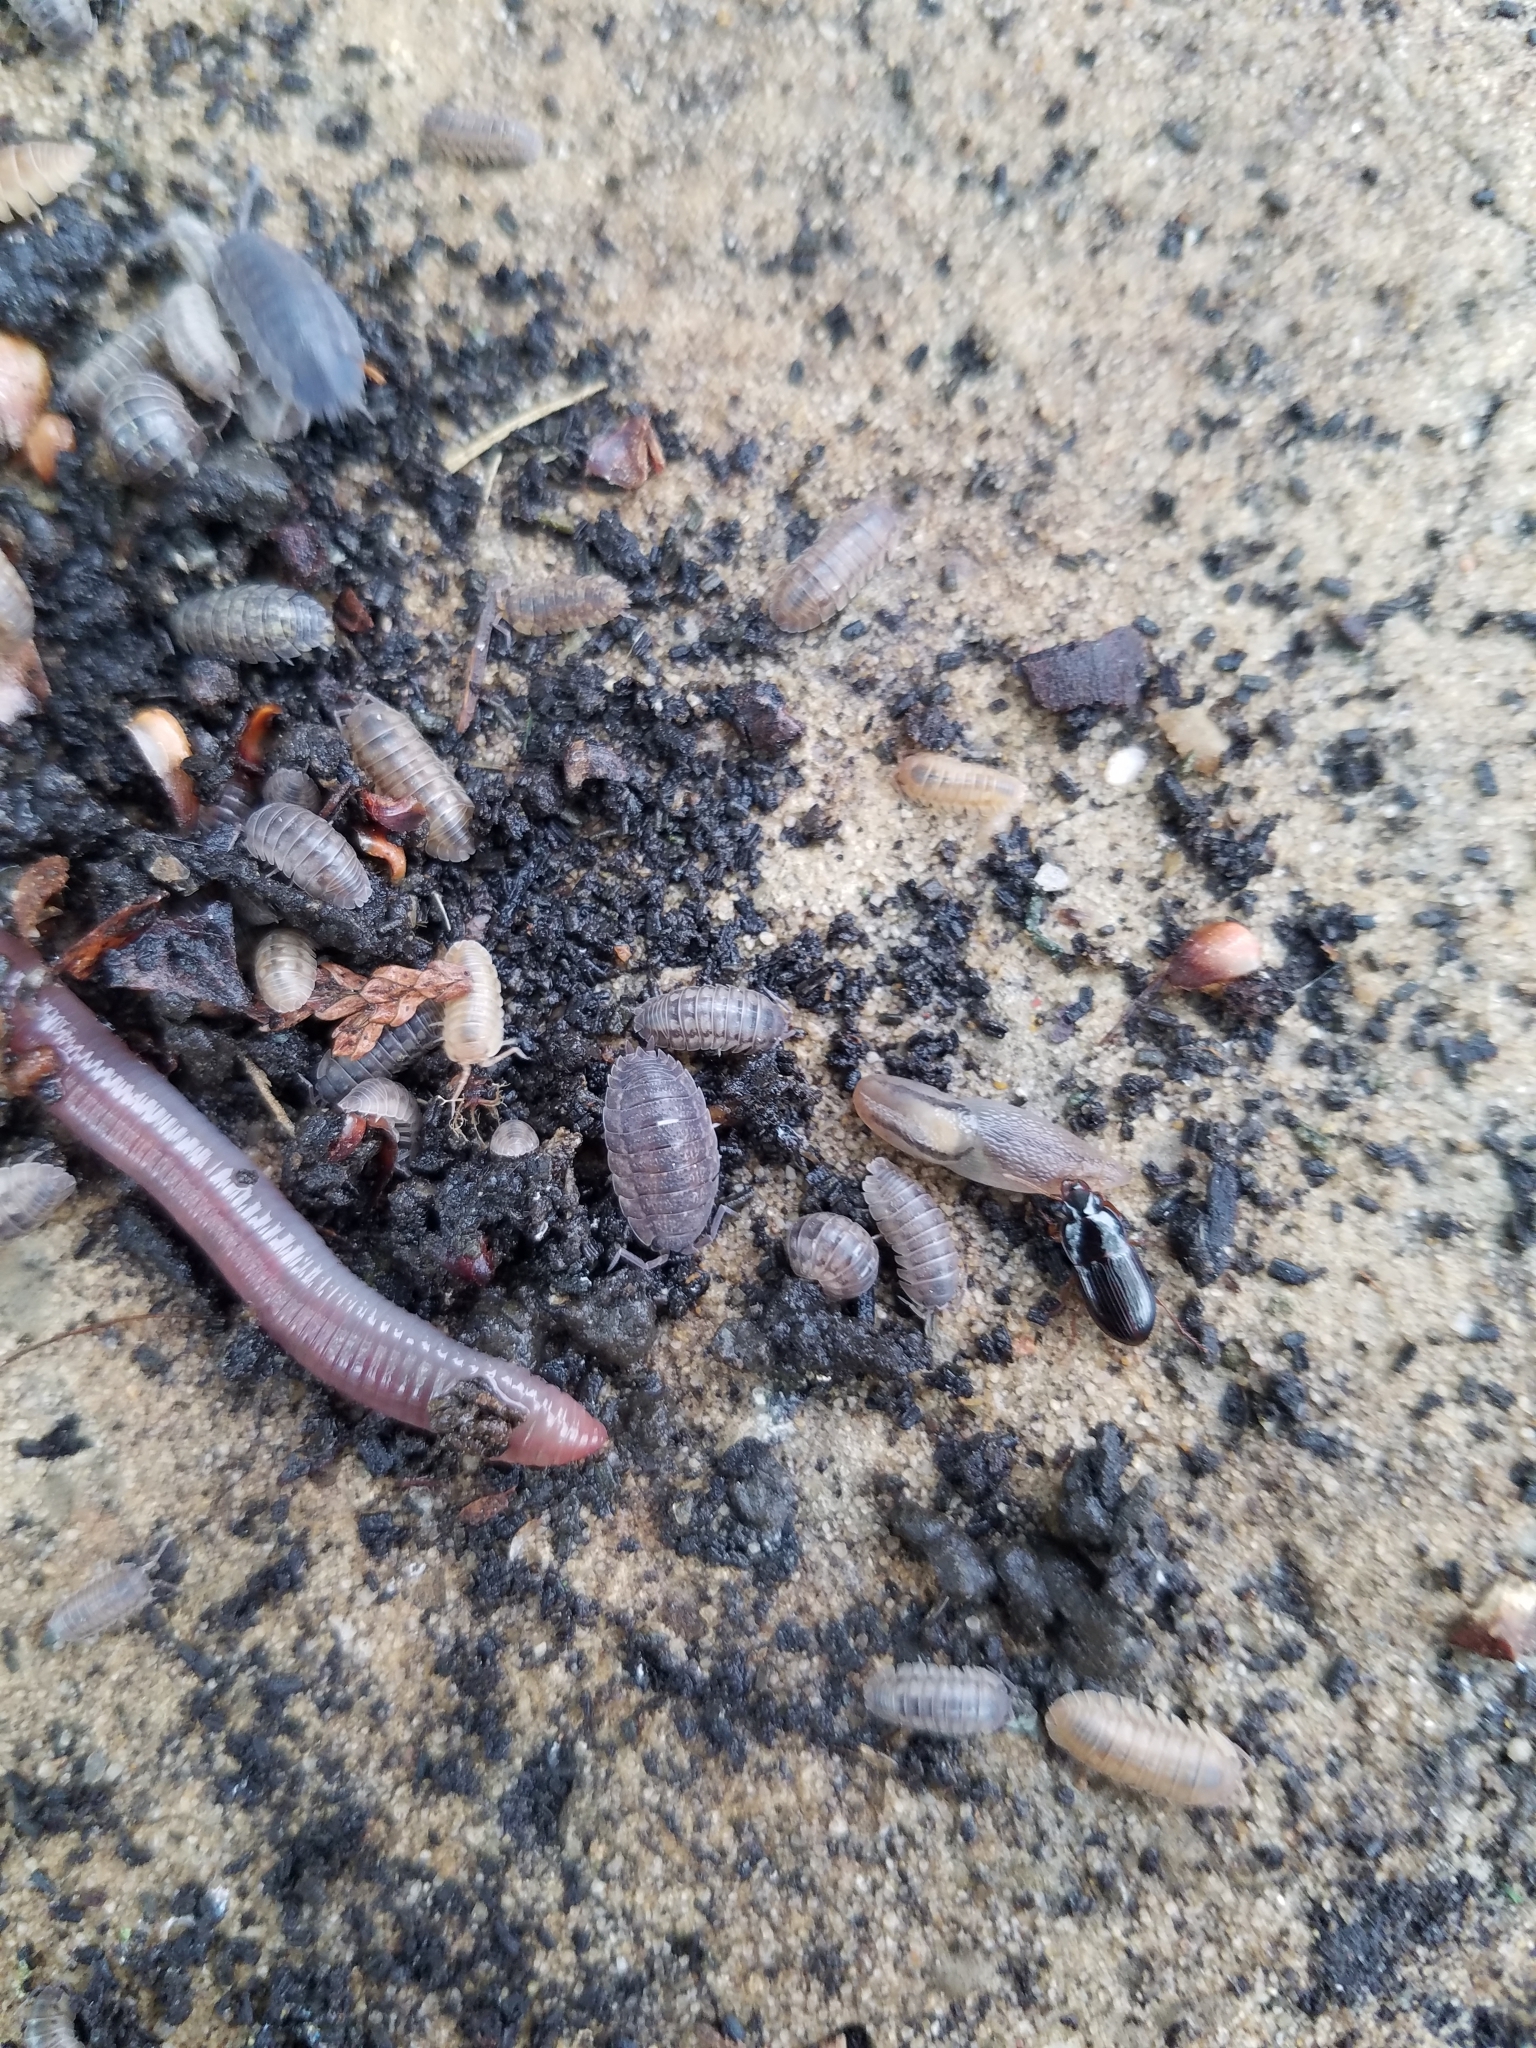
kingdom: Animalia
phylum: Arthropoda
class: Malacostraca
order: Isopoda
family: Armadillidiidae
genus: Armadillidium
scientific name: Armadillidium nasatum
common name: Isopod
